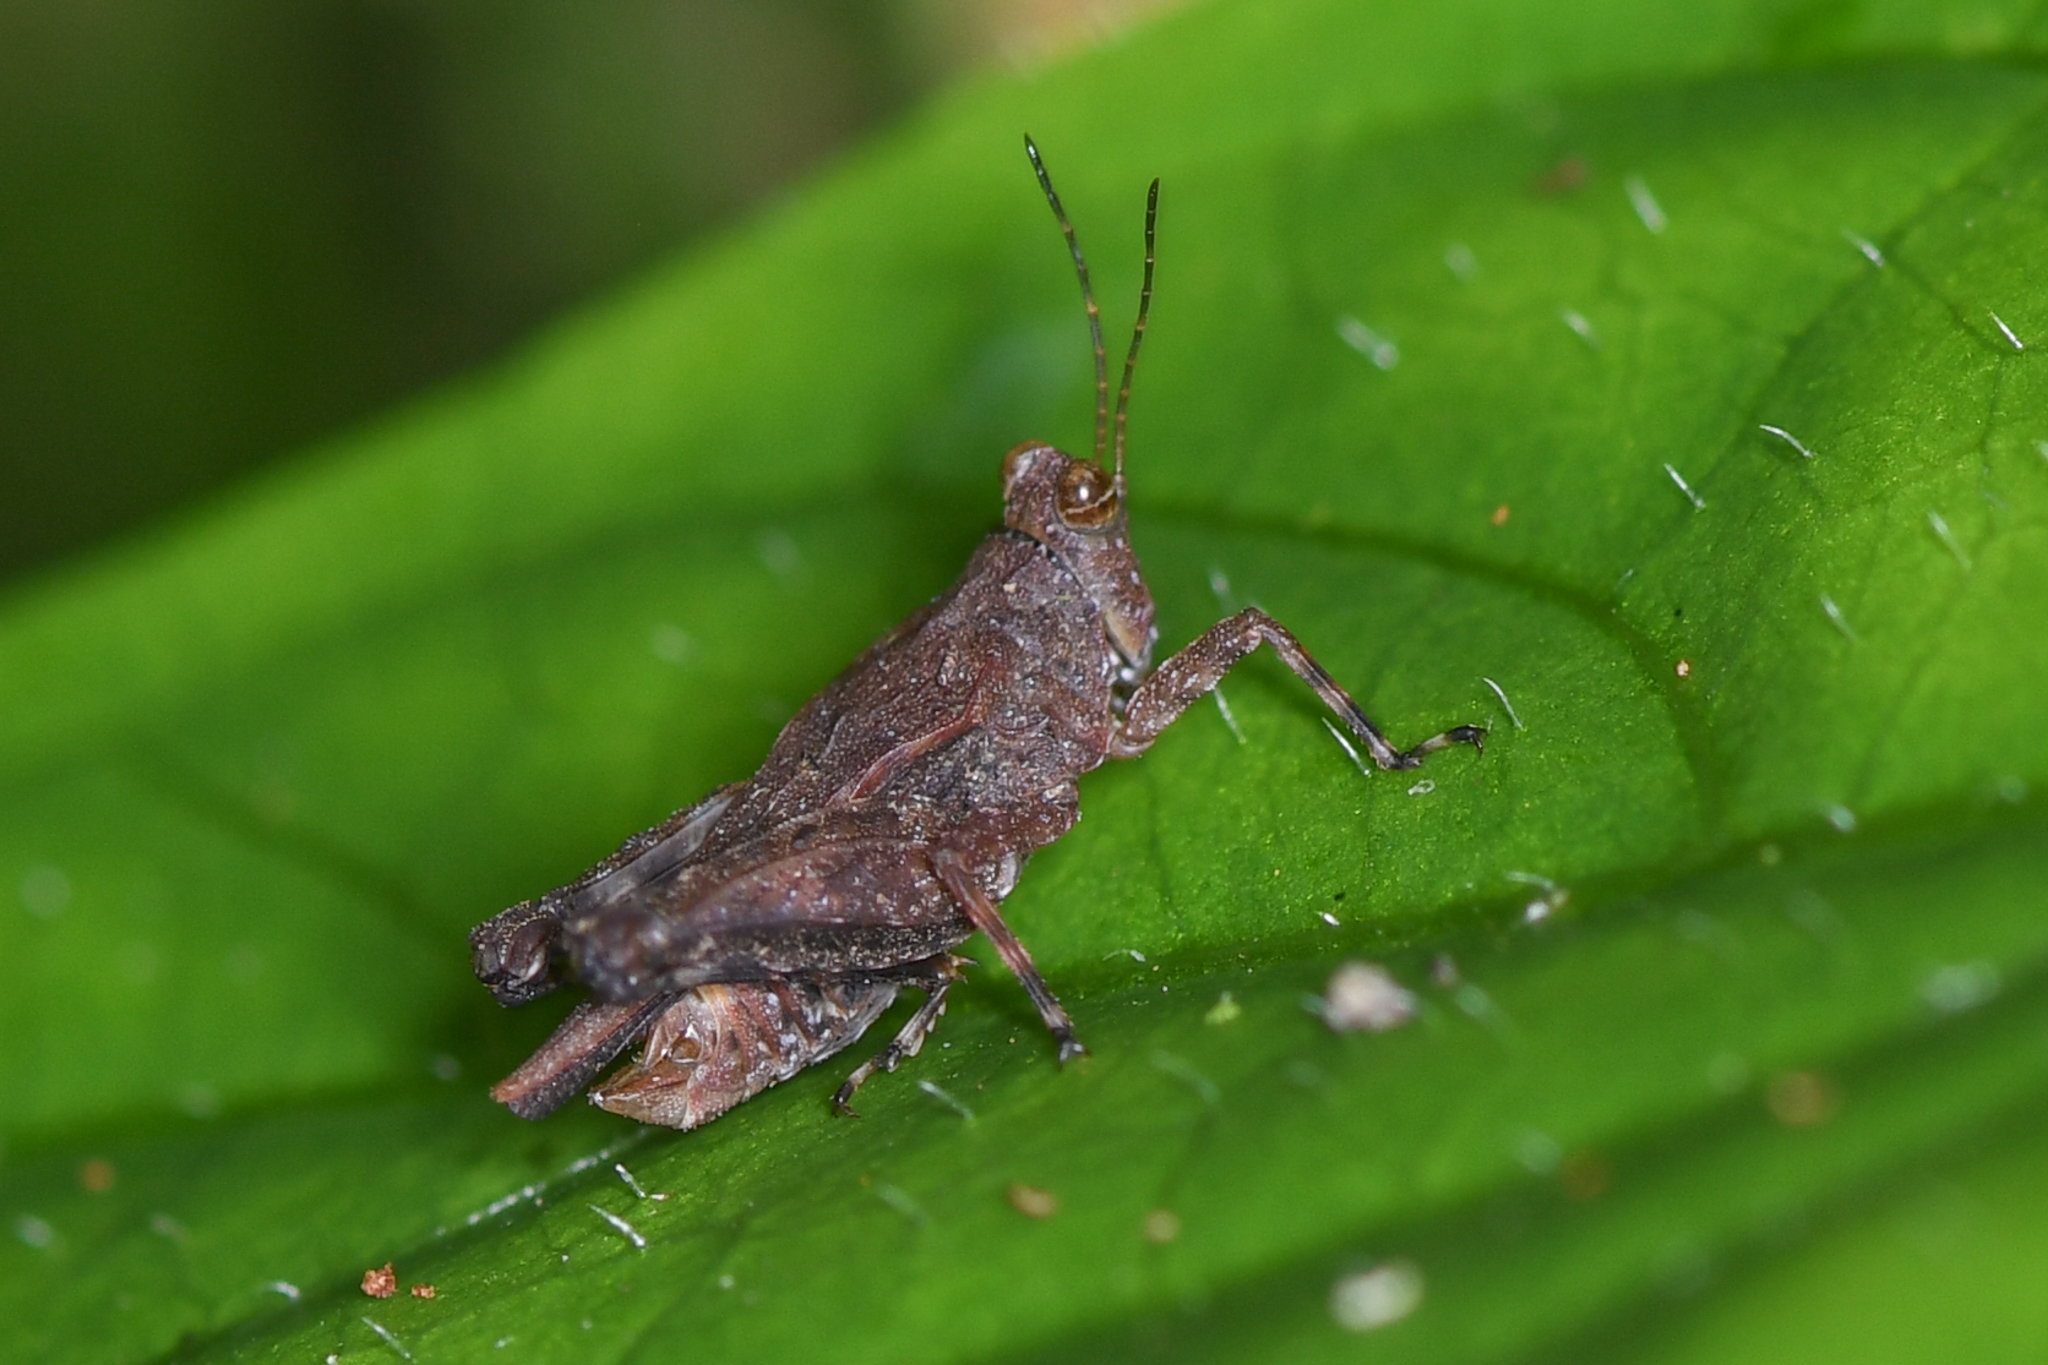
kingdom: Animalia
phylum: Arthropoda
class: Insecta
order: Orthoptera
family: Tetrigidae
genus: Crimisus
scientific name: Crimisus
